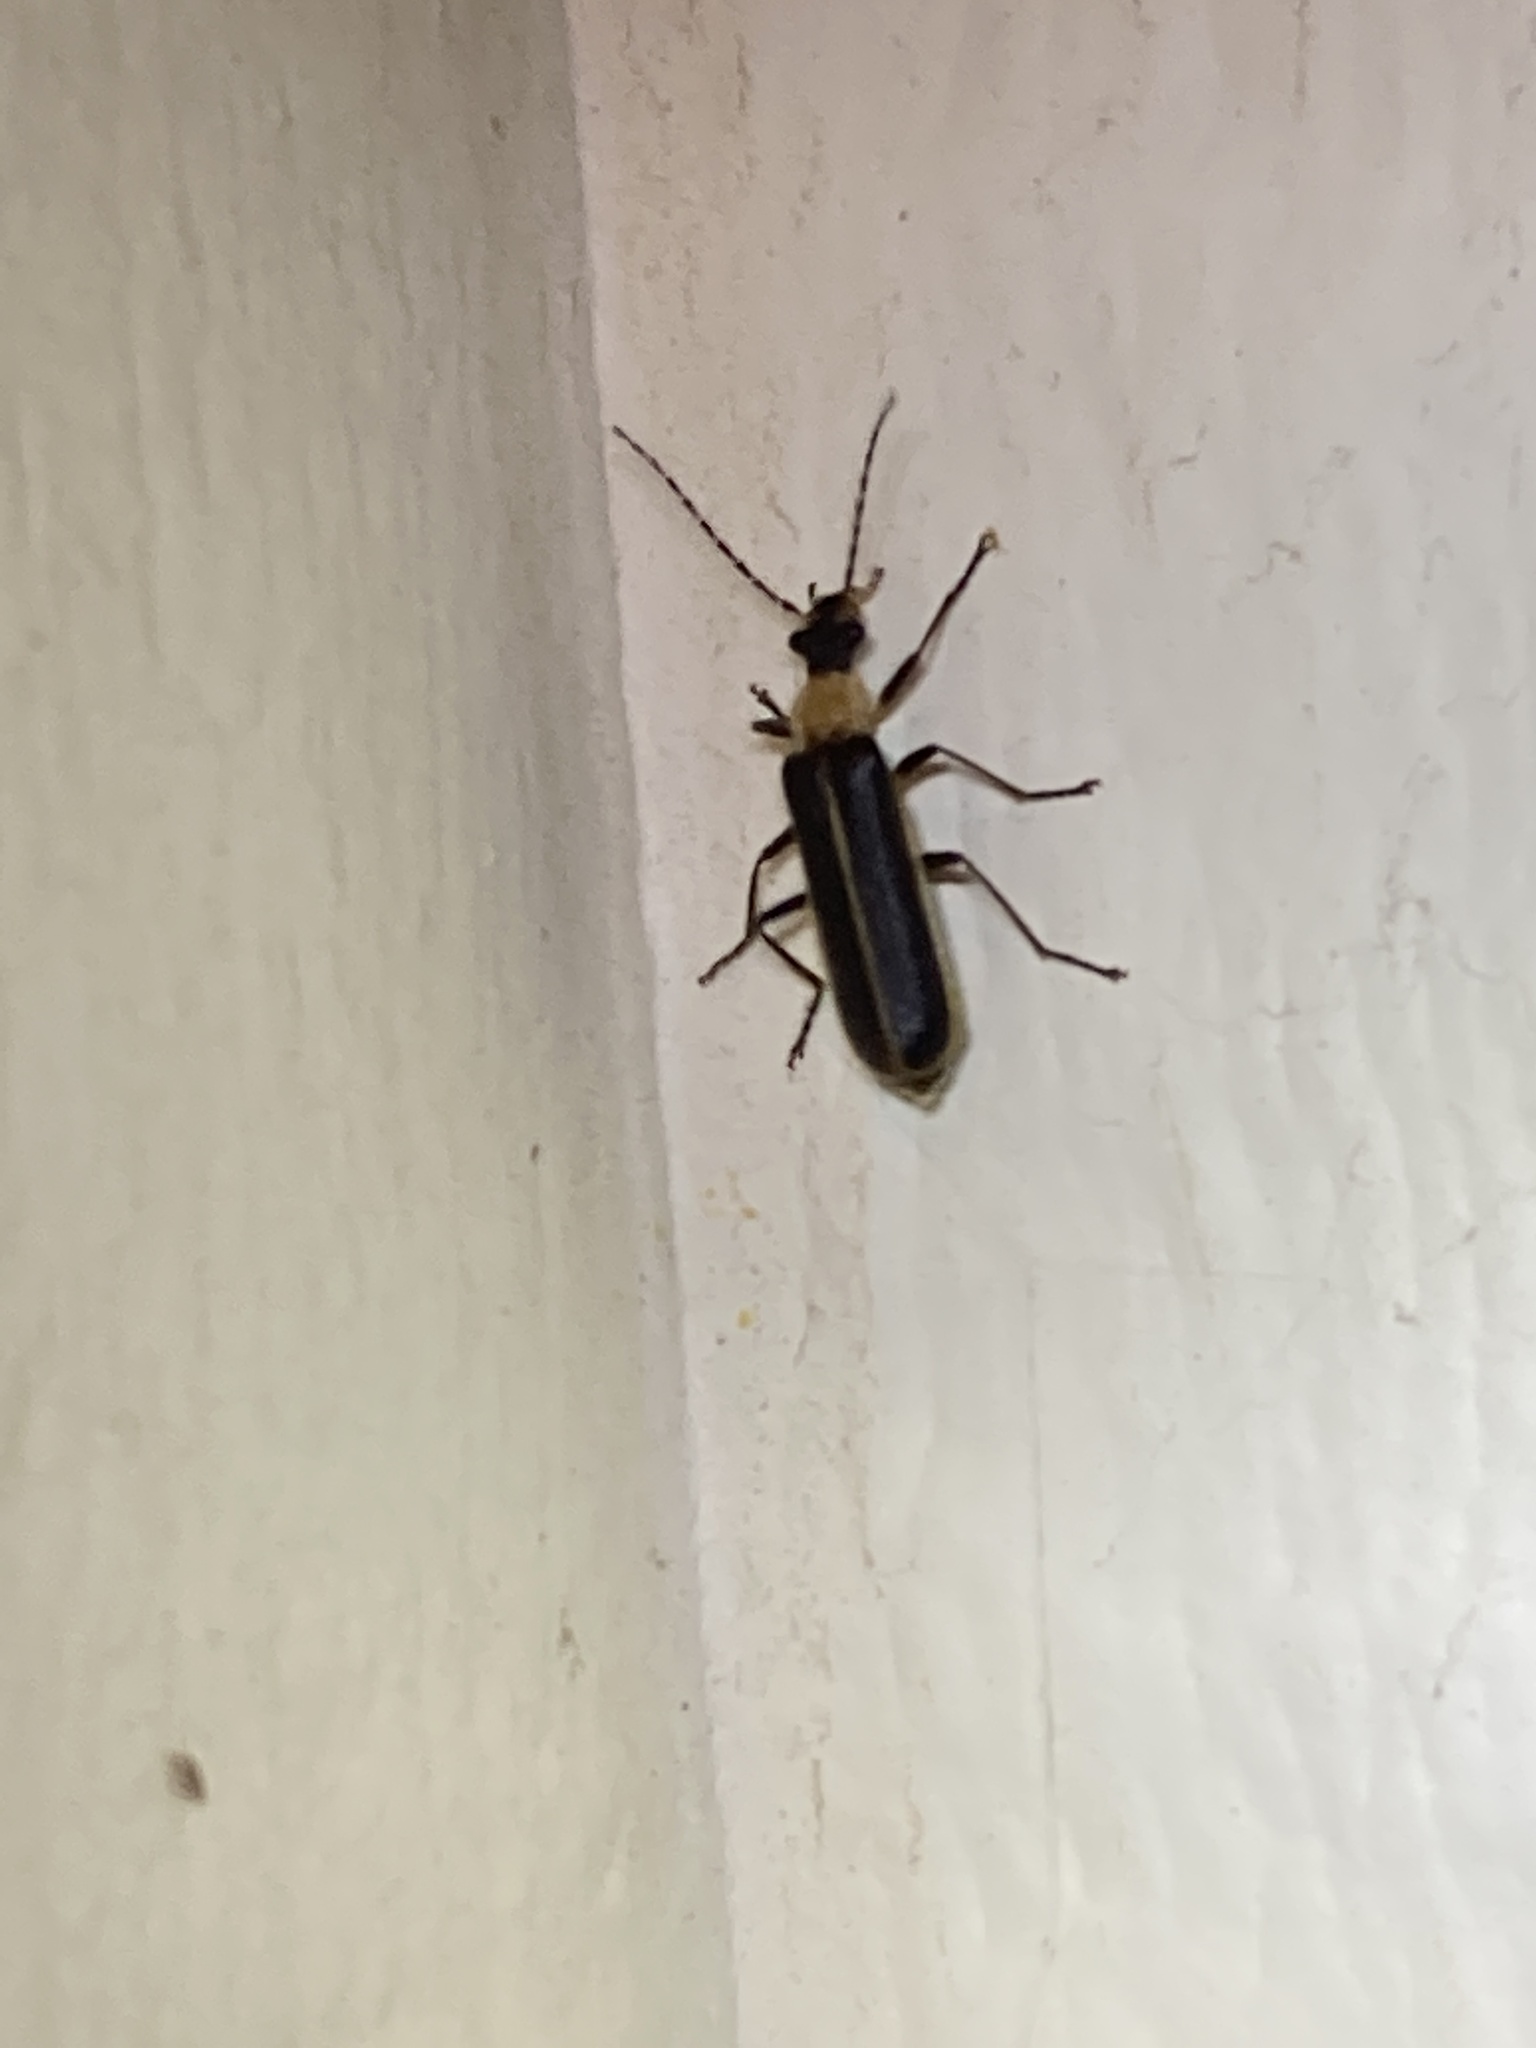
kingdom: Animalia
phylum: Arthropoda
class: Insecta
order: Coleoptera
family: Cantharidae
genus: Podabrus
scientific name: Podabrus flavicollis
